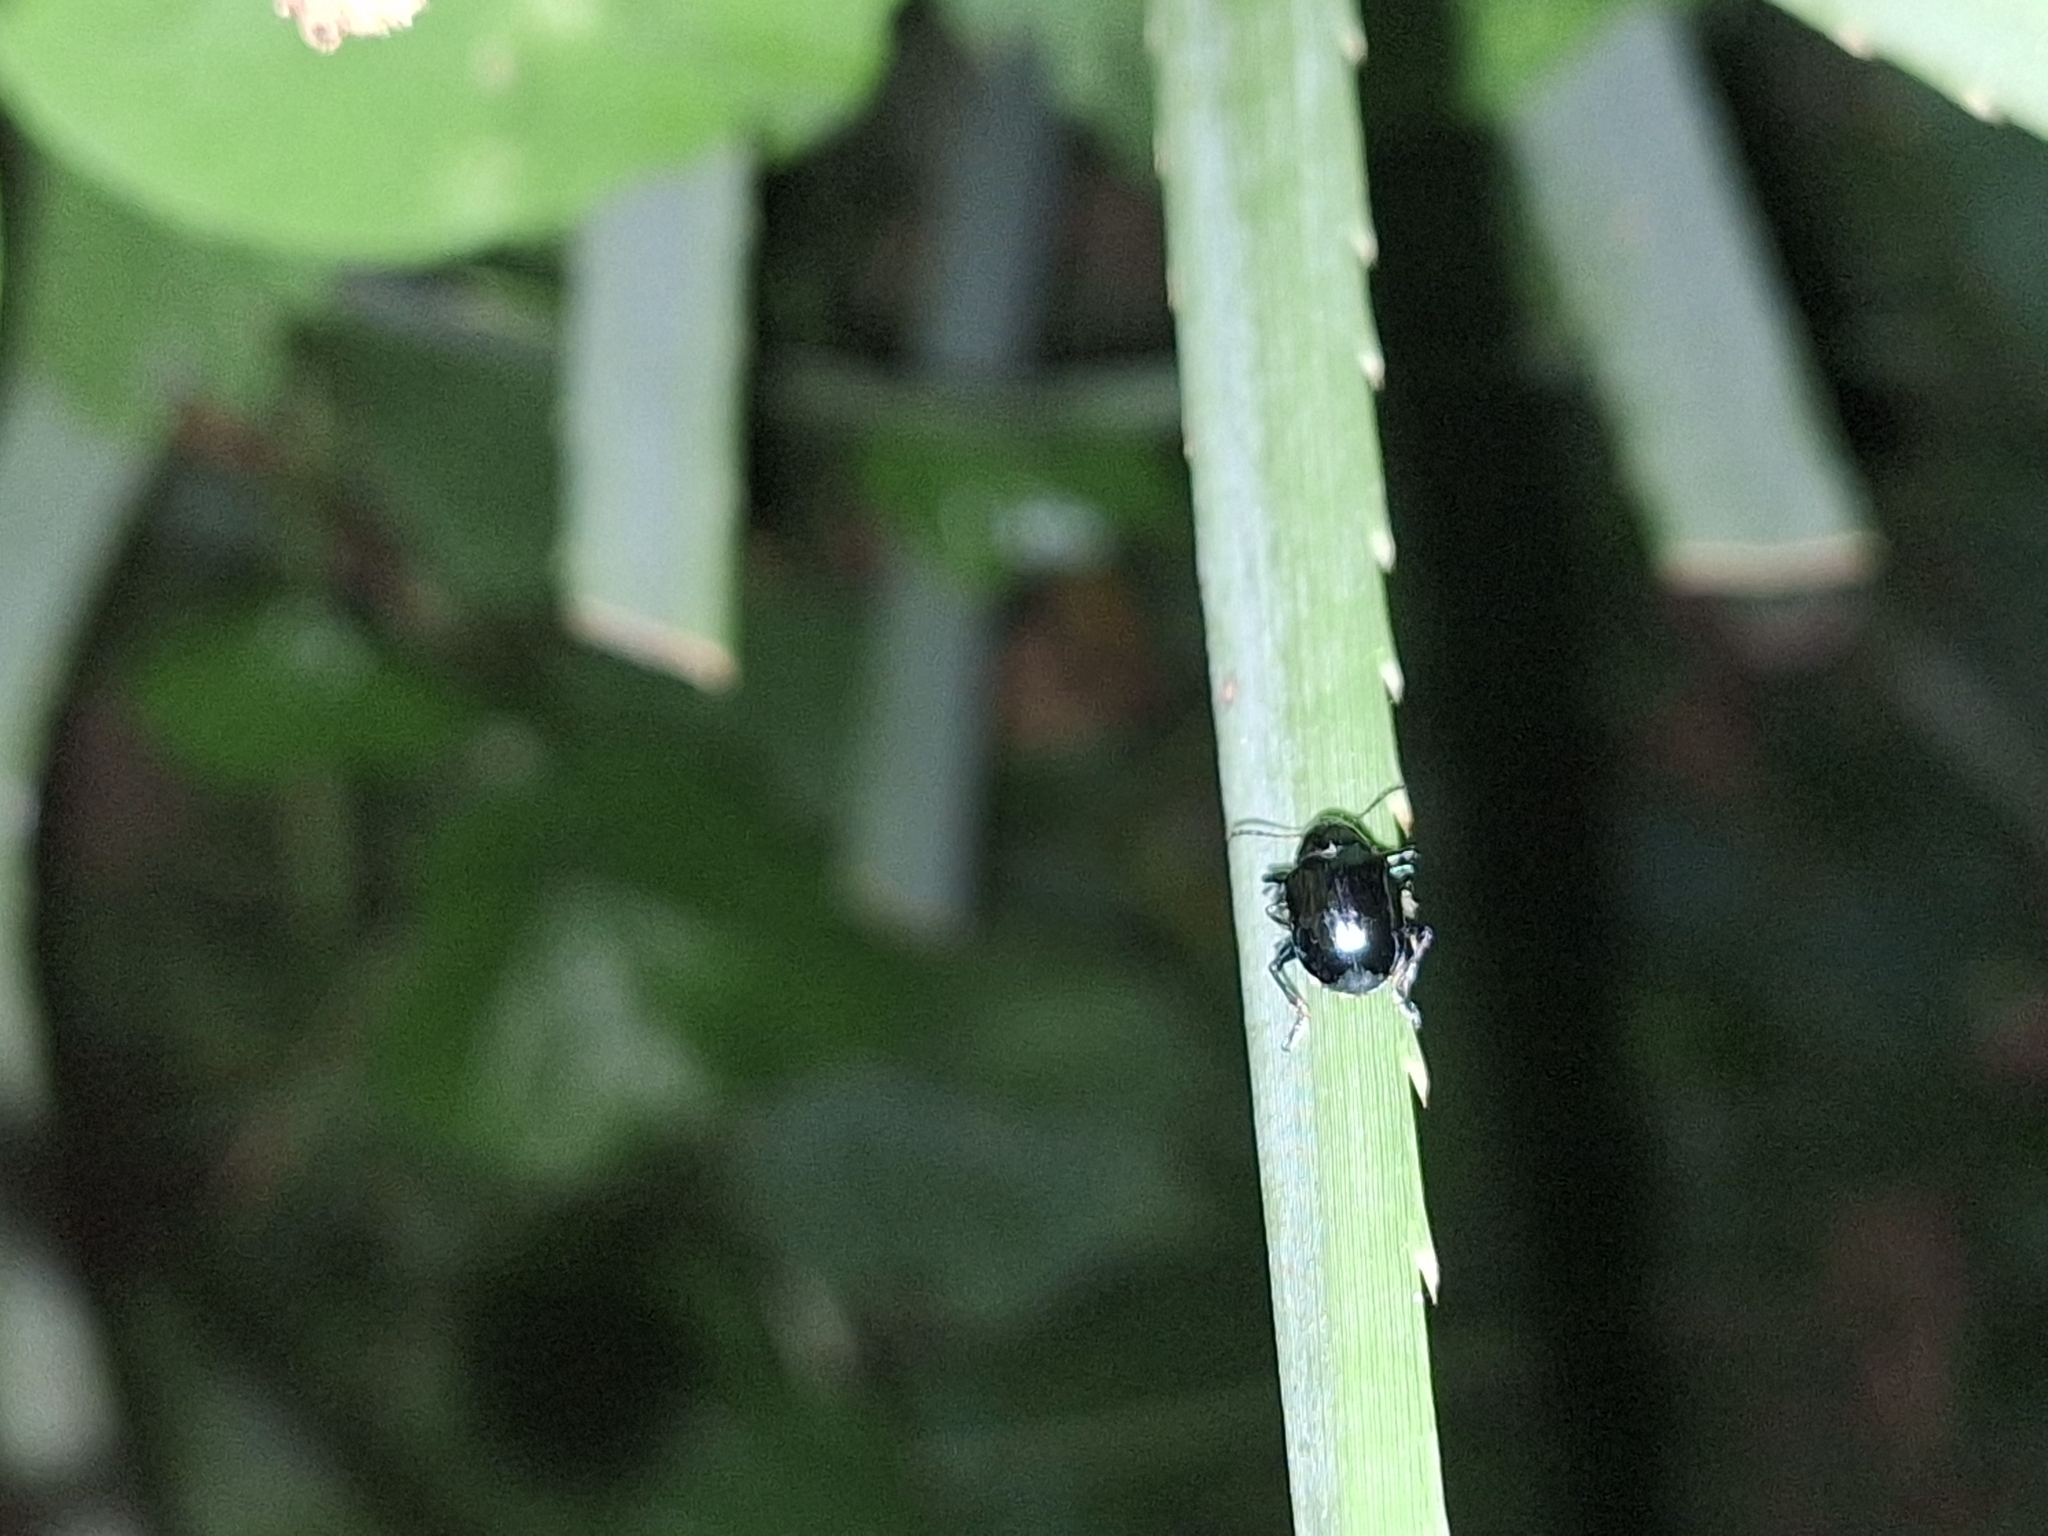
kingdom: Animalia
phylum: Arthropoda
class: Insecta
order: Coleoptera
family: Chrysomelidae
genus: Typophorus
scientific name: Typophorus nigritus
